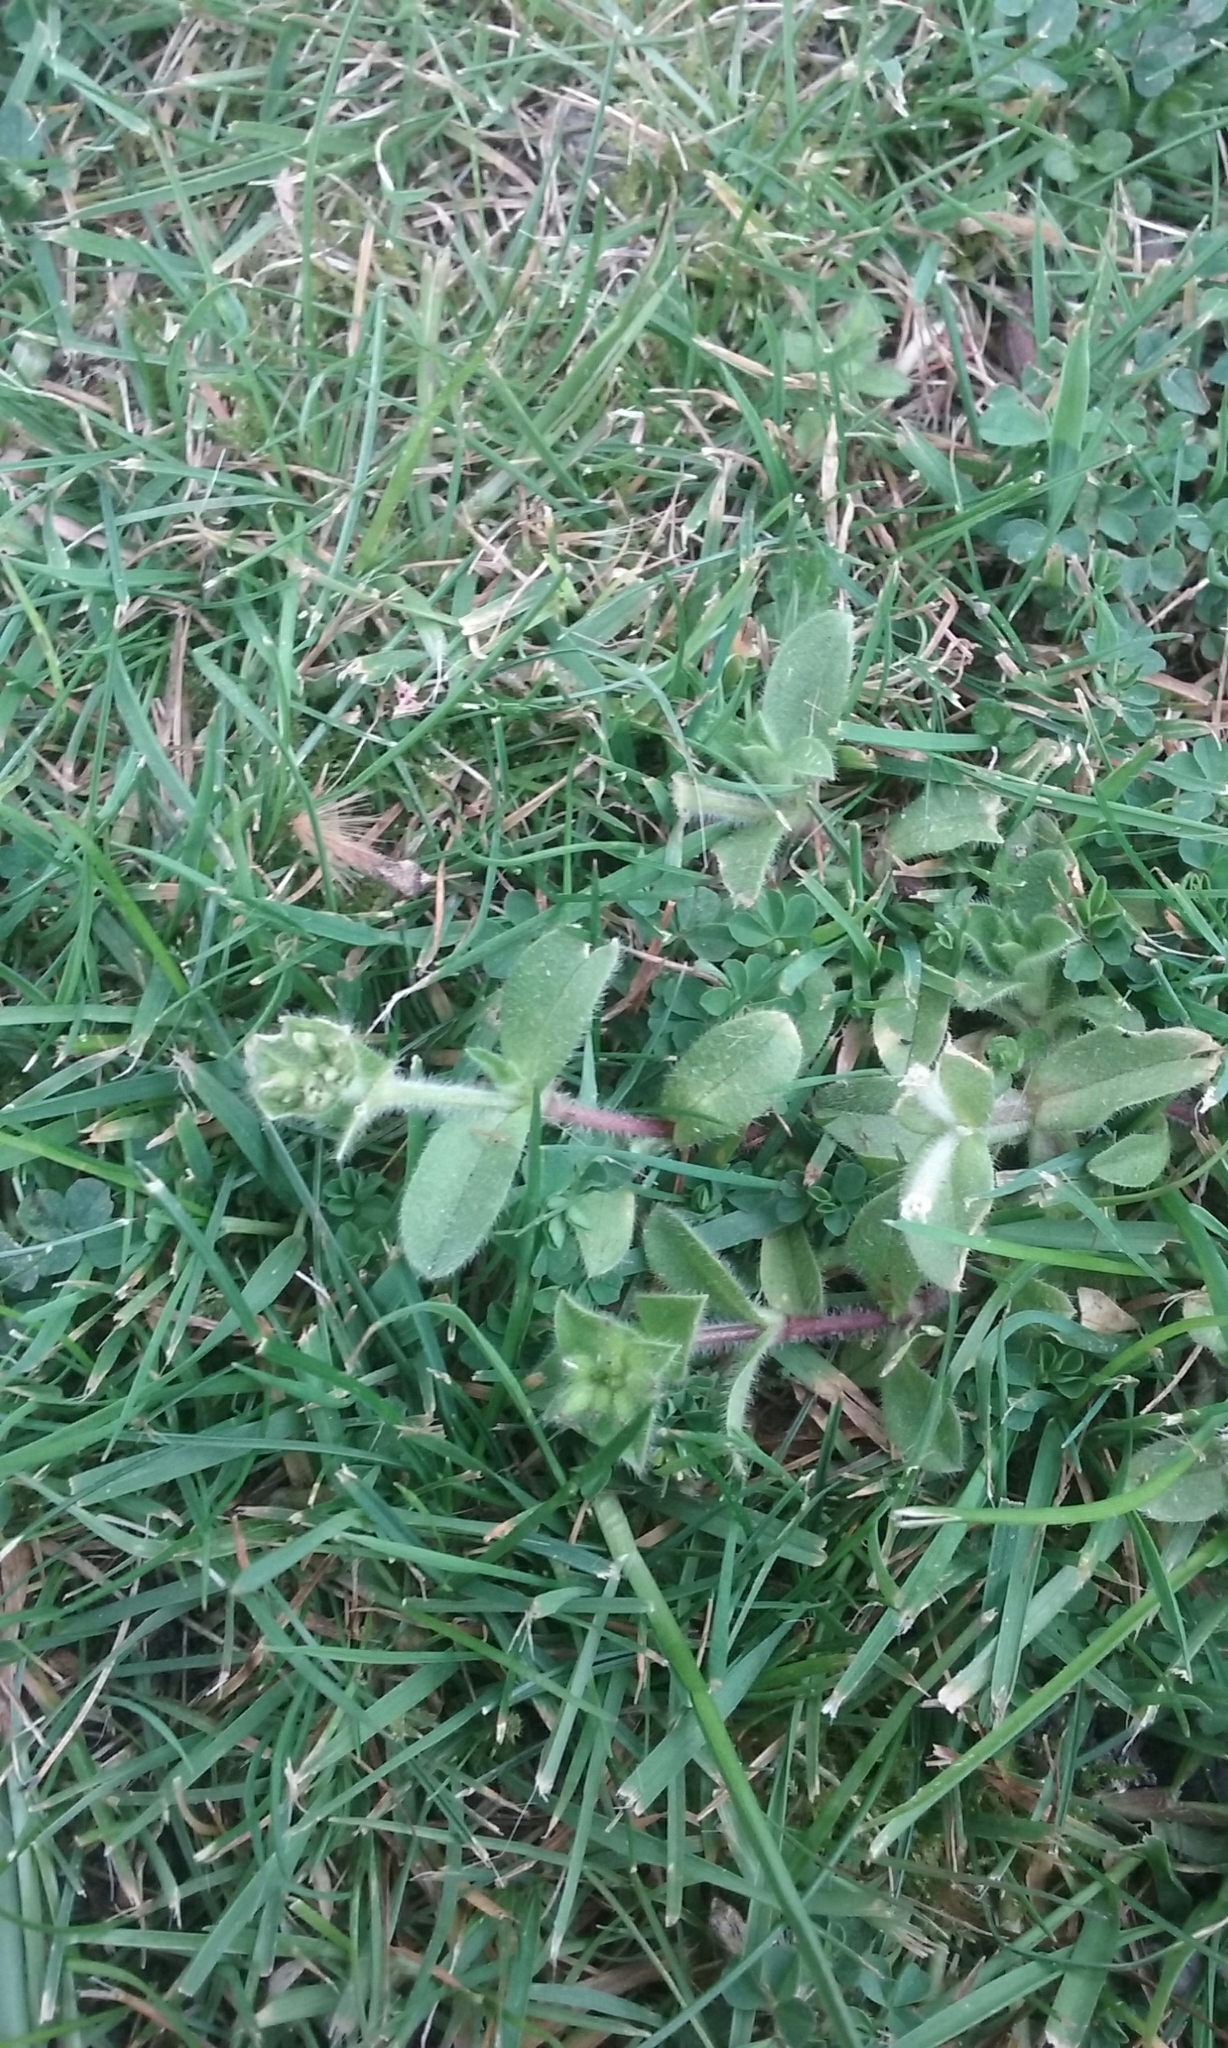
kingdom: Plantae
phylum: Tracheophyta
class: Magnoliopsida
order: Caryophyllales
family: Caryophyllaceae
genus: Cerastium
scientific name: Cerastium glomeratum
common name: Sticky chickweed
